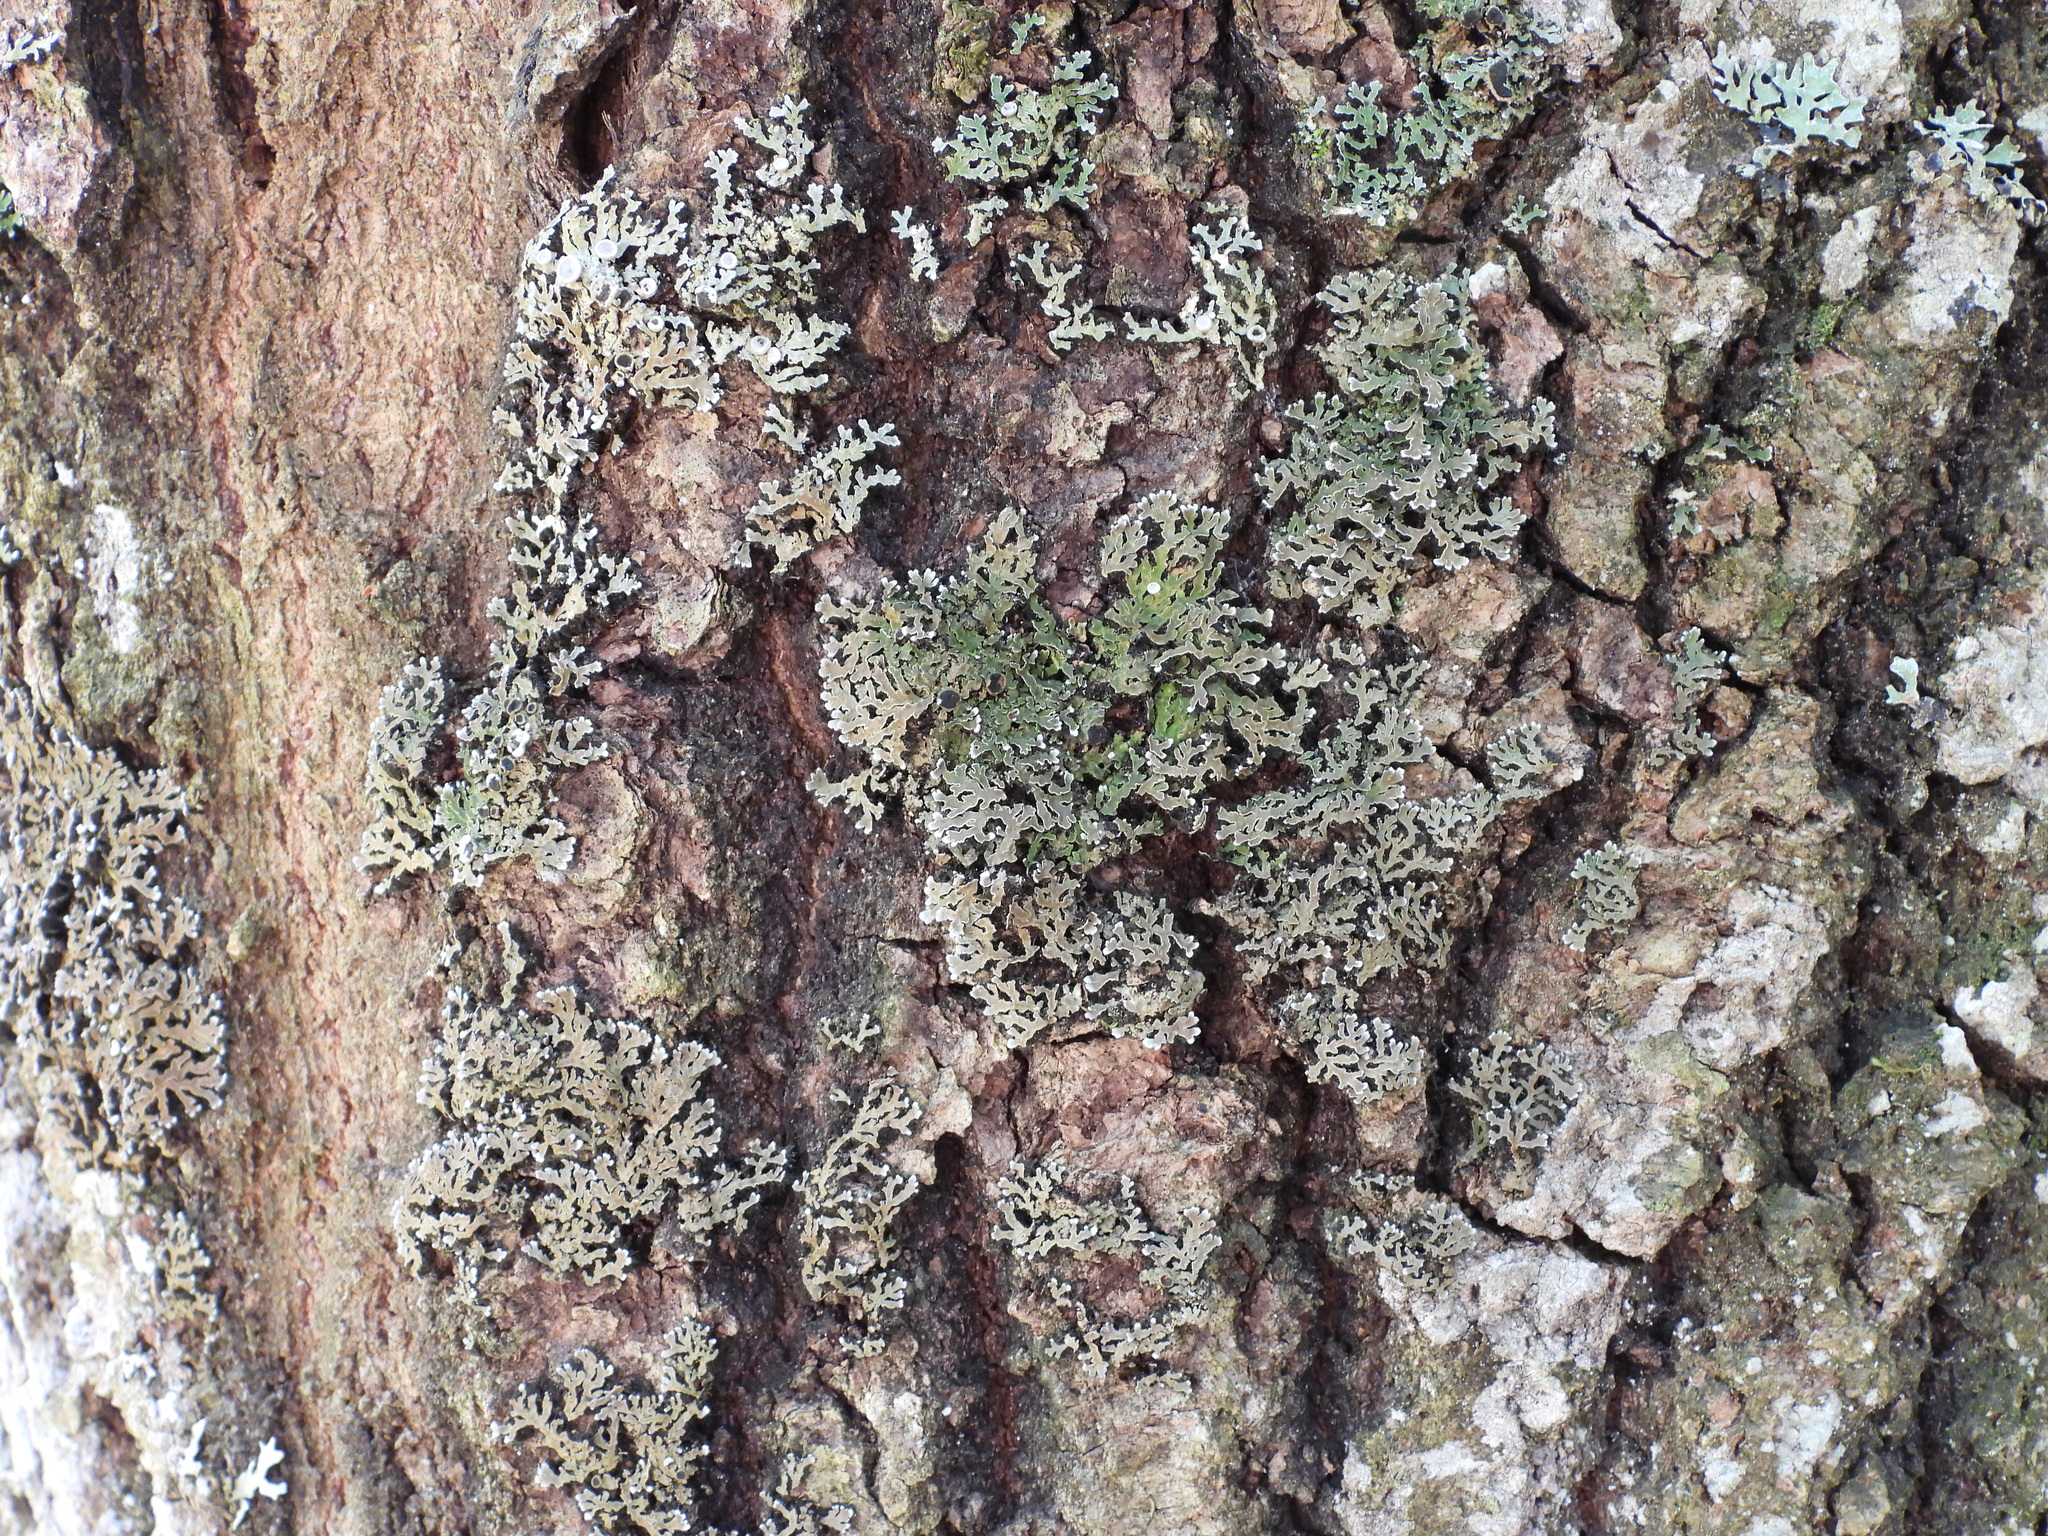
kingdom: Fungi
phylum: Ascomycota
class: Lecanoromycetes
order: Caliciales
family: Physciaceae
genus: Physconia
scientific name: Physconia distorta
